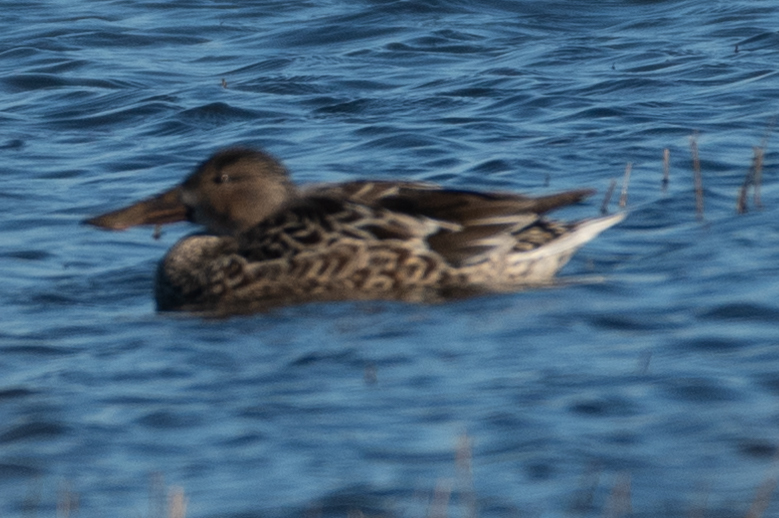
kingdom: Animalia
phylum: Chordata
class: Aves
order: Anseriformes
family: Anatidae
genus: Spatula
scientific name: Spatula clypeata
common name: Northern shoveler
